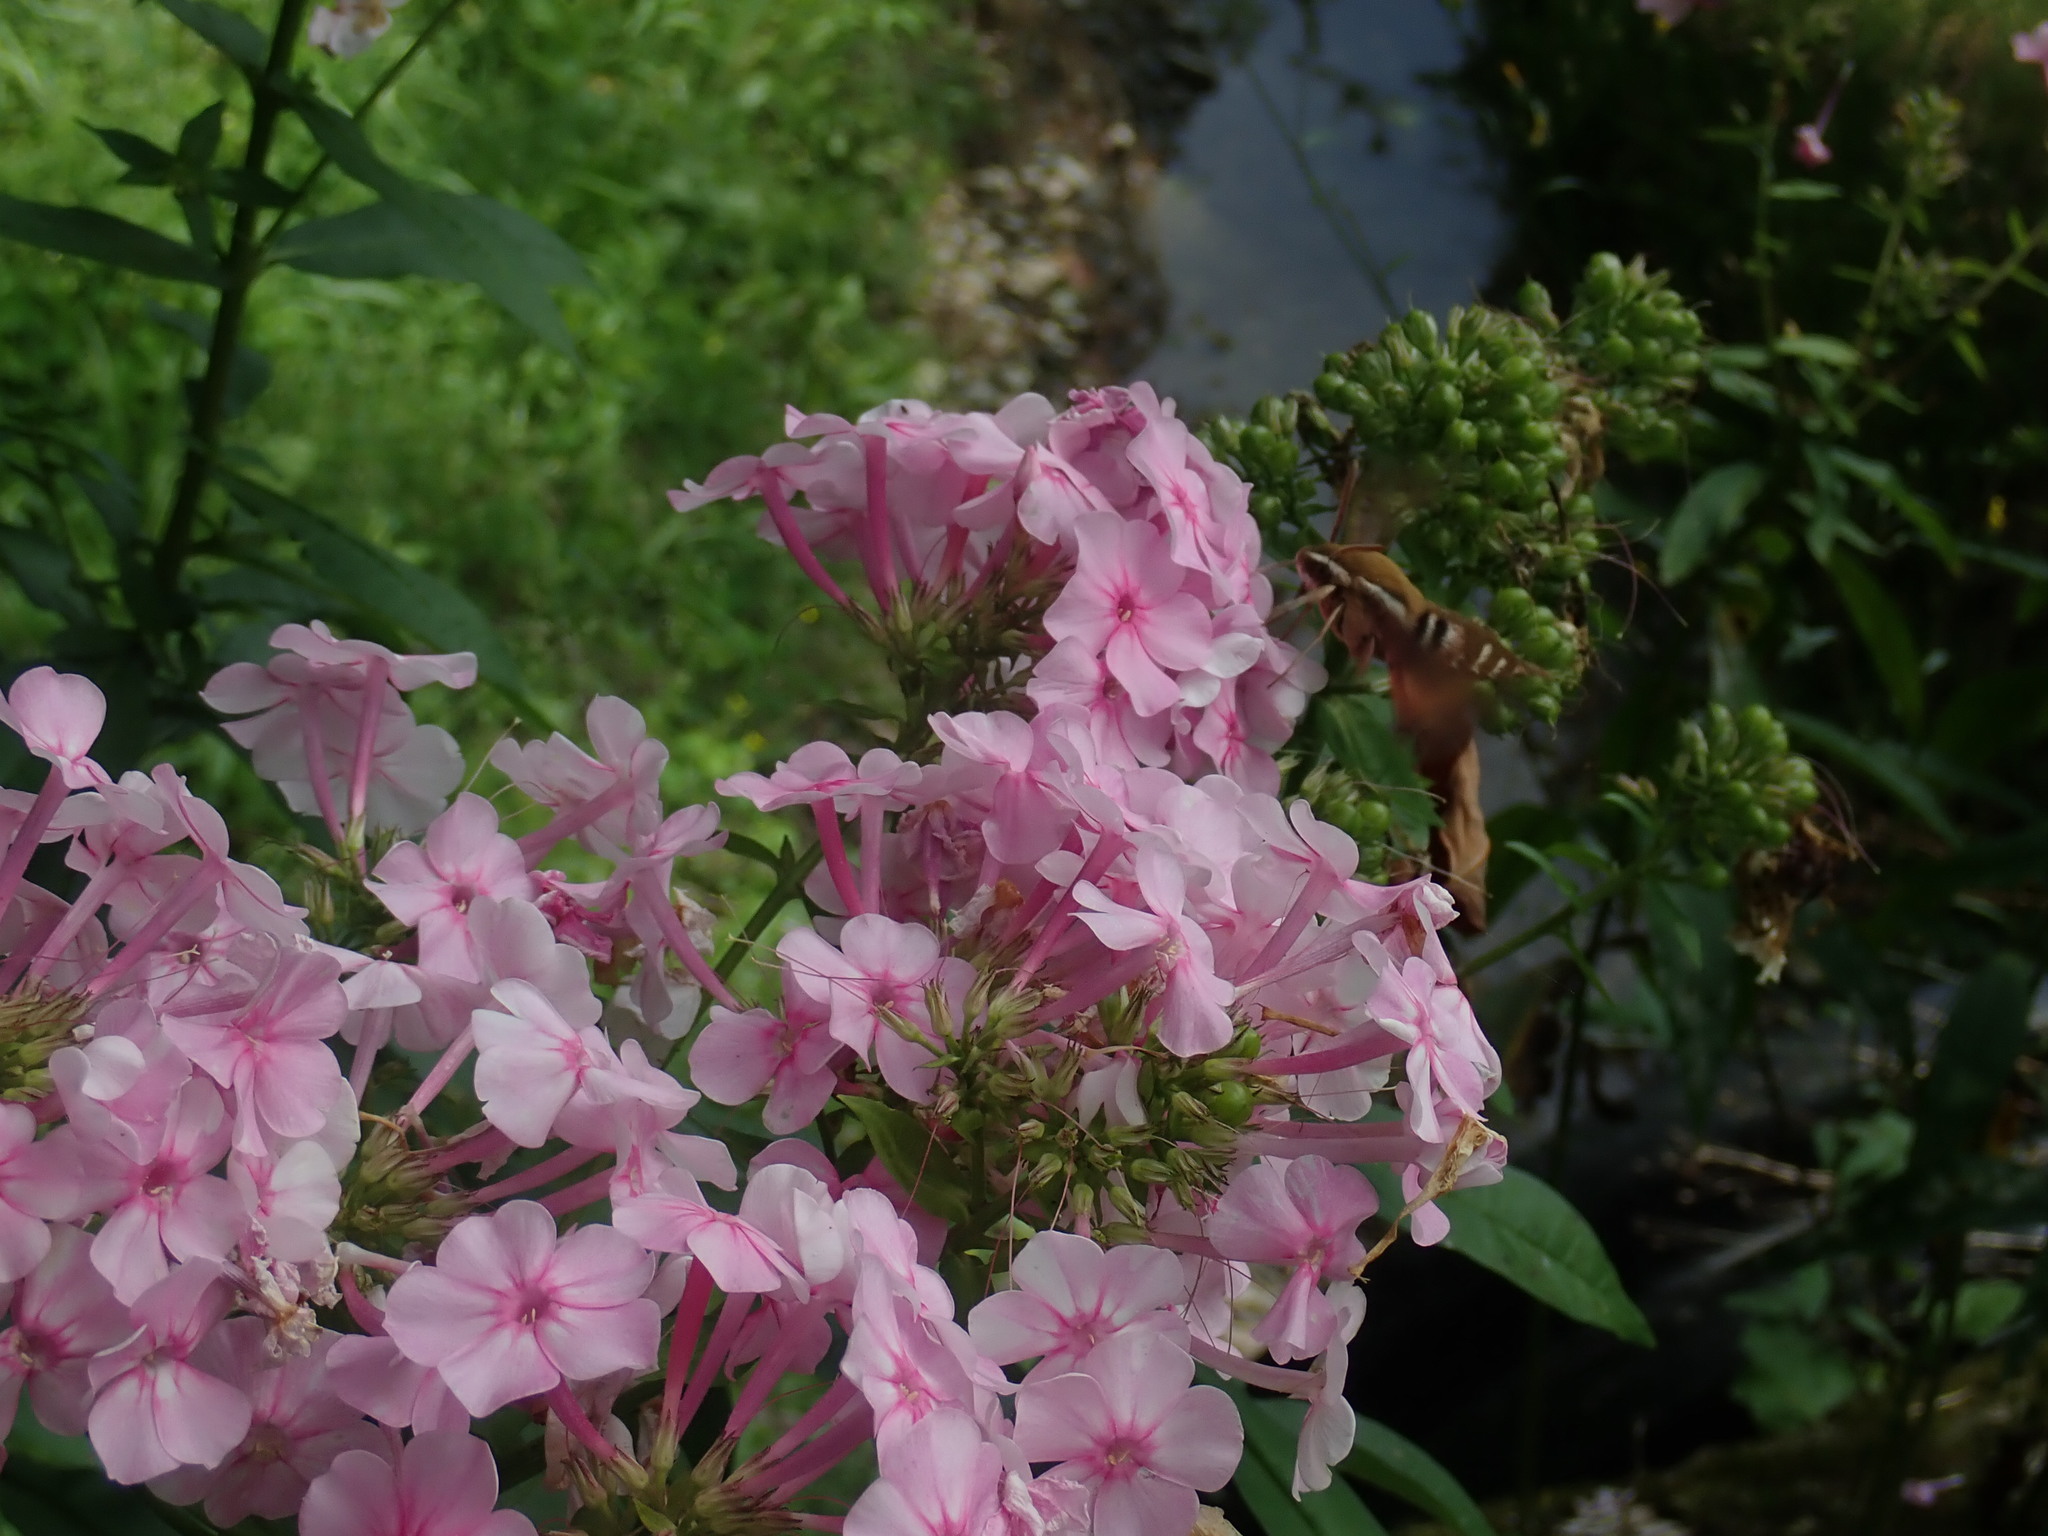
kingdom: Animalia
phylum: Arthropoda
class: Insecta
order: Lepidoptera
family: Sphingidae
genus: Hyles
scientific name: Hyles gallii
